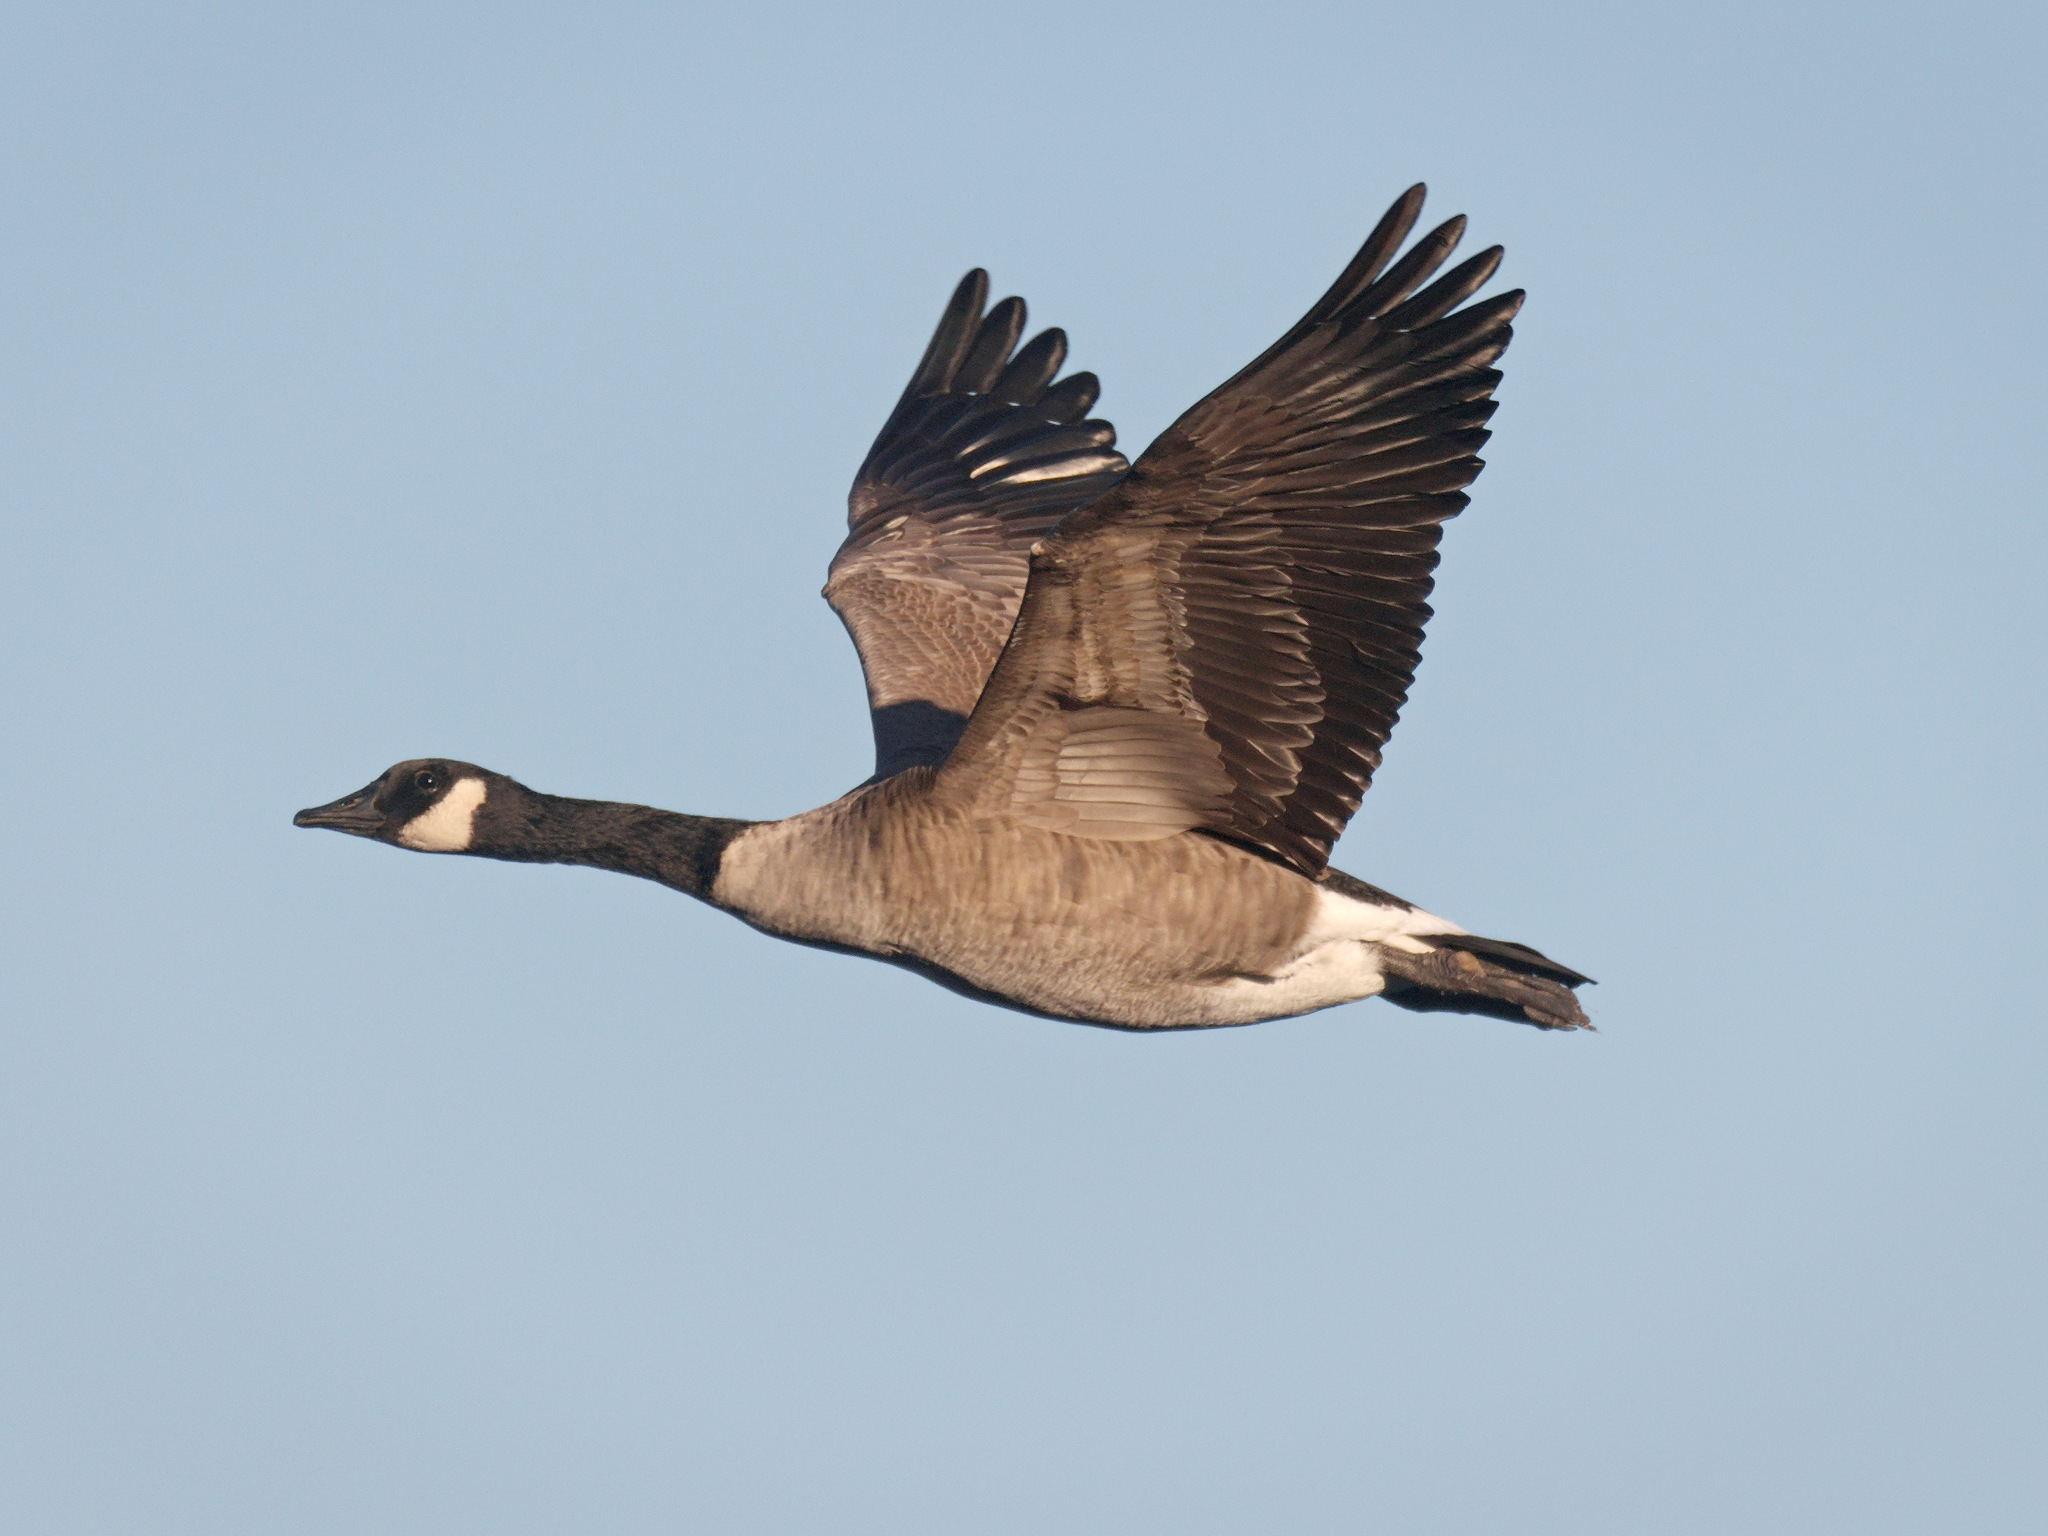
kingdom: Animalia
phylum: Chordata
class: Aves
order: Anseriformes
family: Anatidae
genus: Branta
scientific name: Branta canadensis
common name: Canada goose
